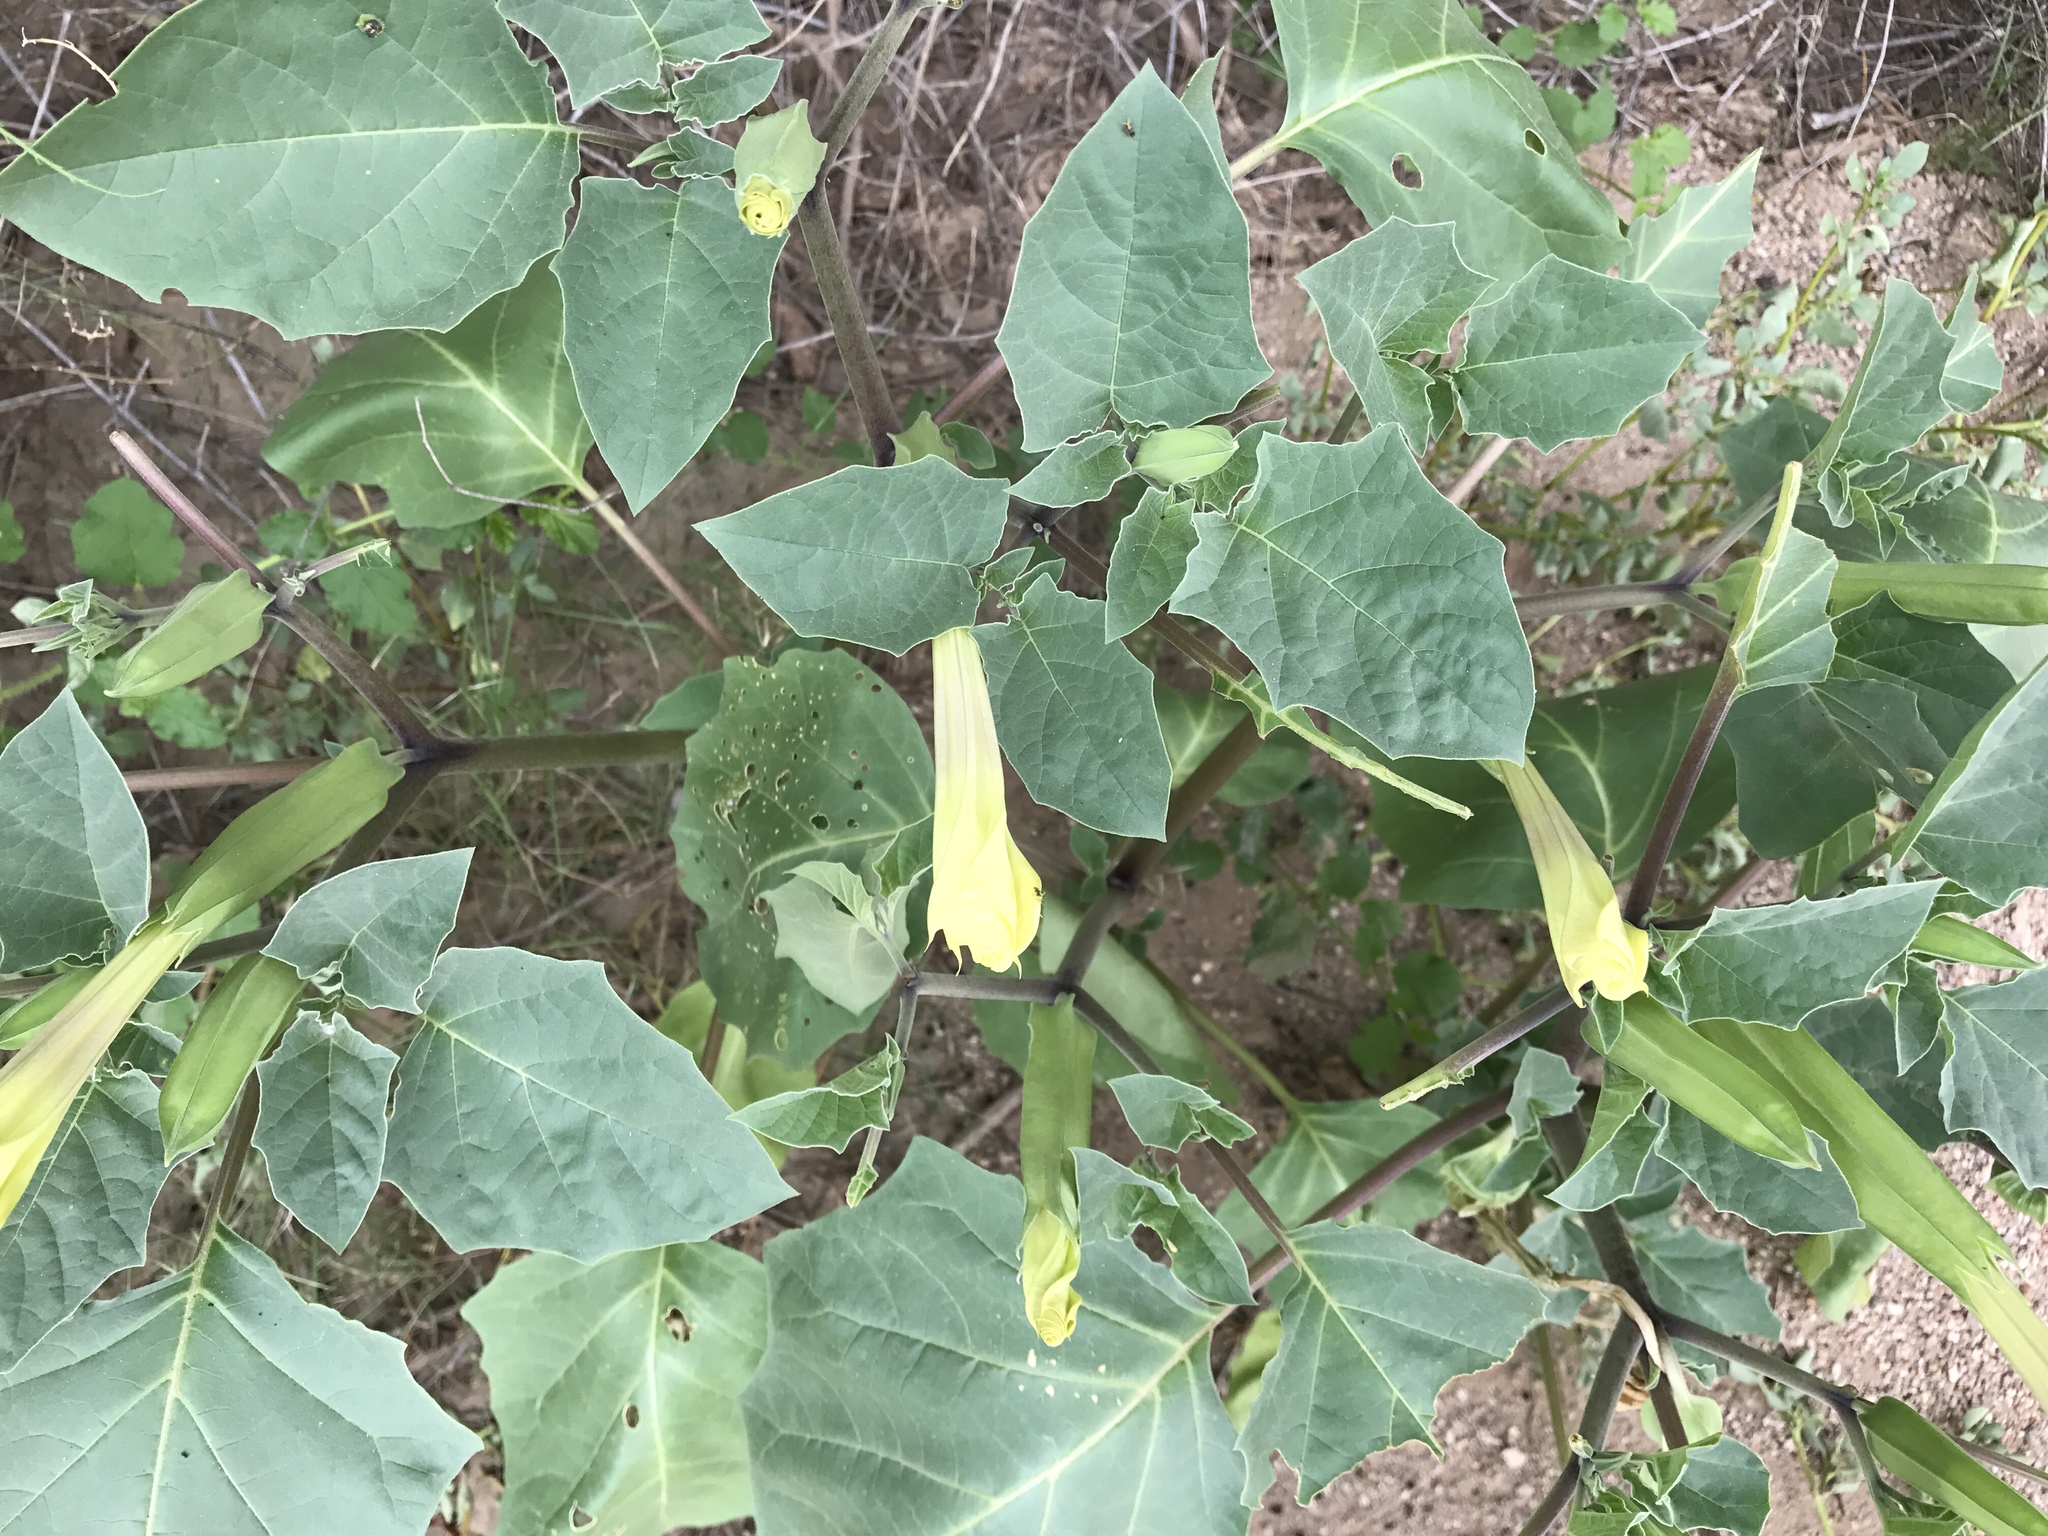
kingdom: Plantae
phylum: Tracheophyta
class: Magnoliopsida
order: Solanales
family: Solanaceae
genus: Datura
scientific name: Datura wrightii
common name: Sacred thorn-apple
